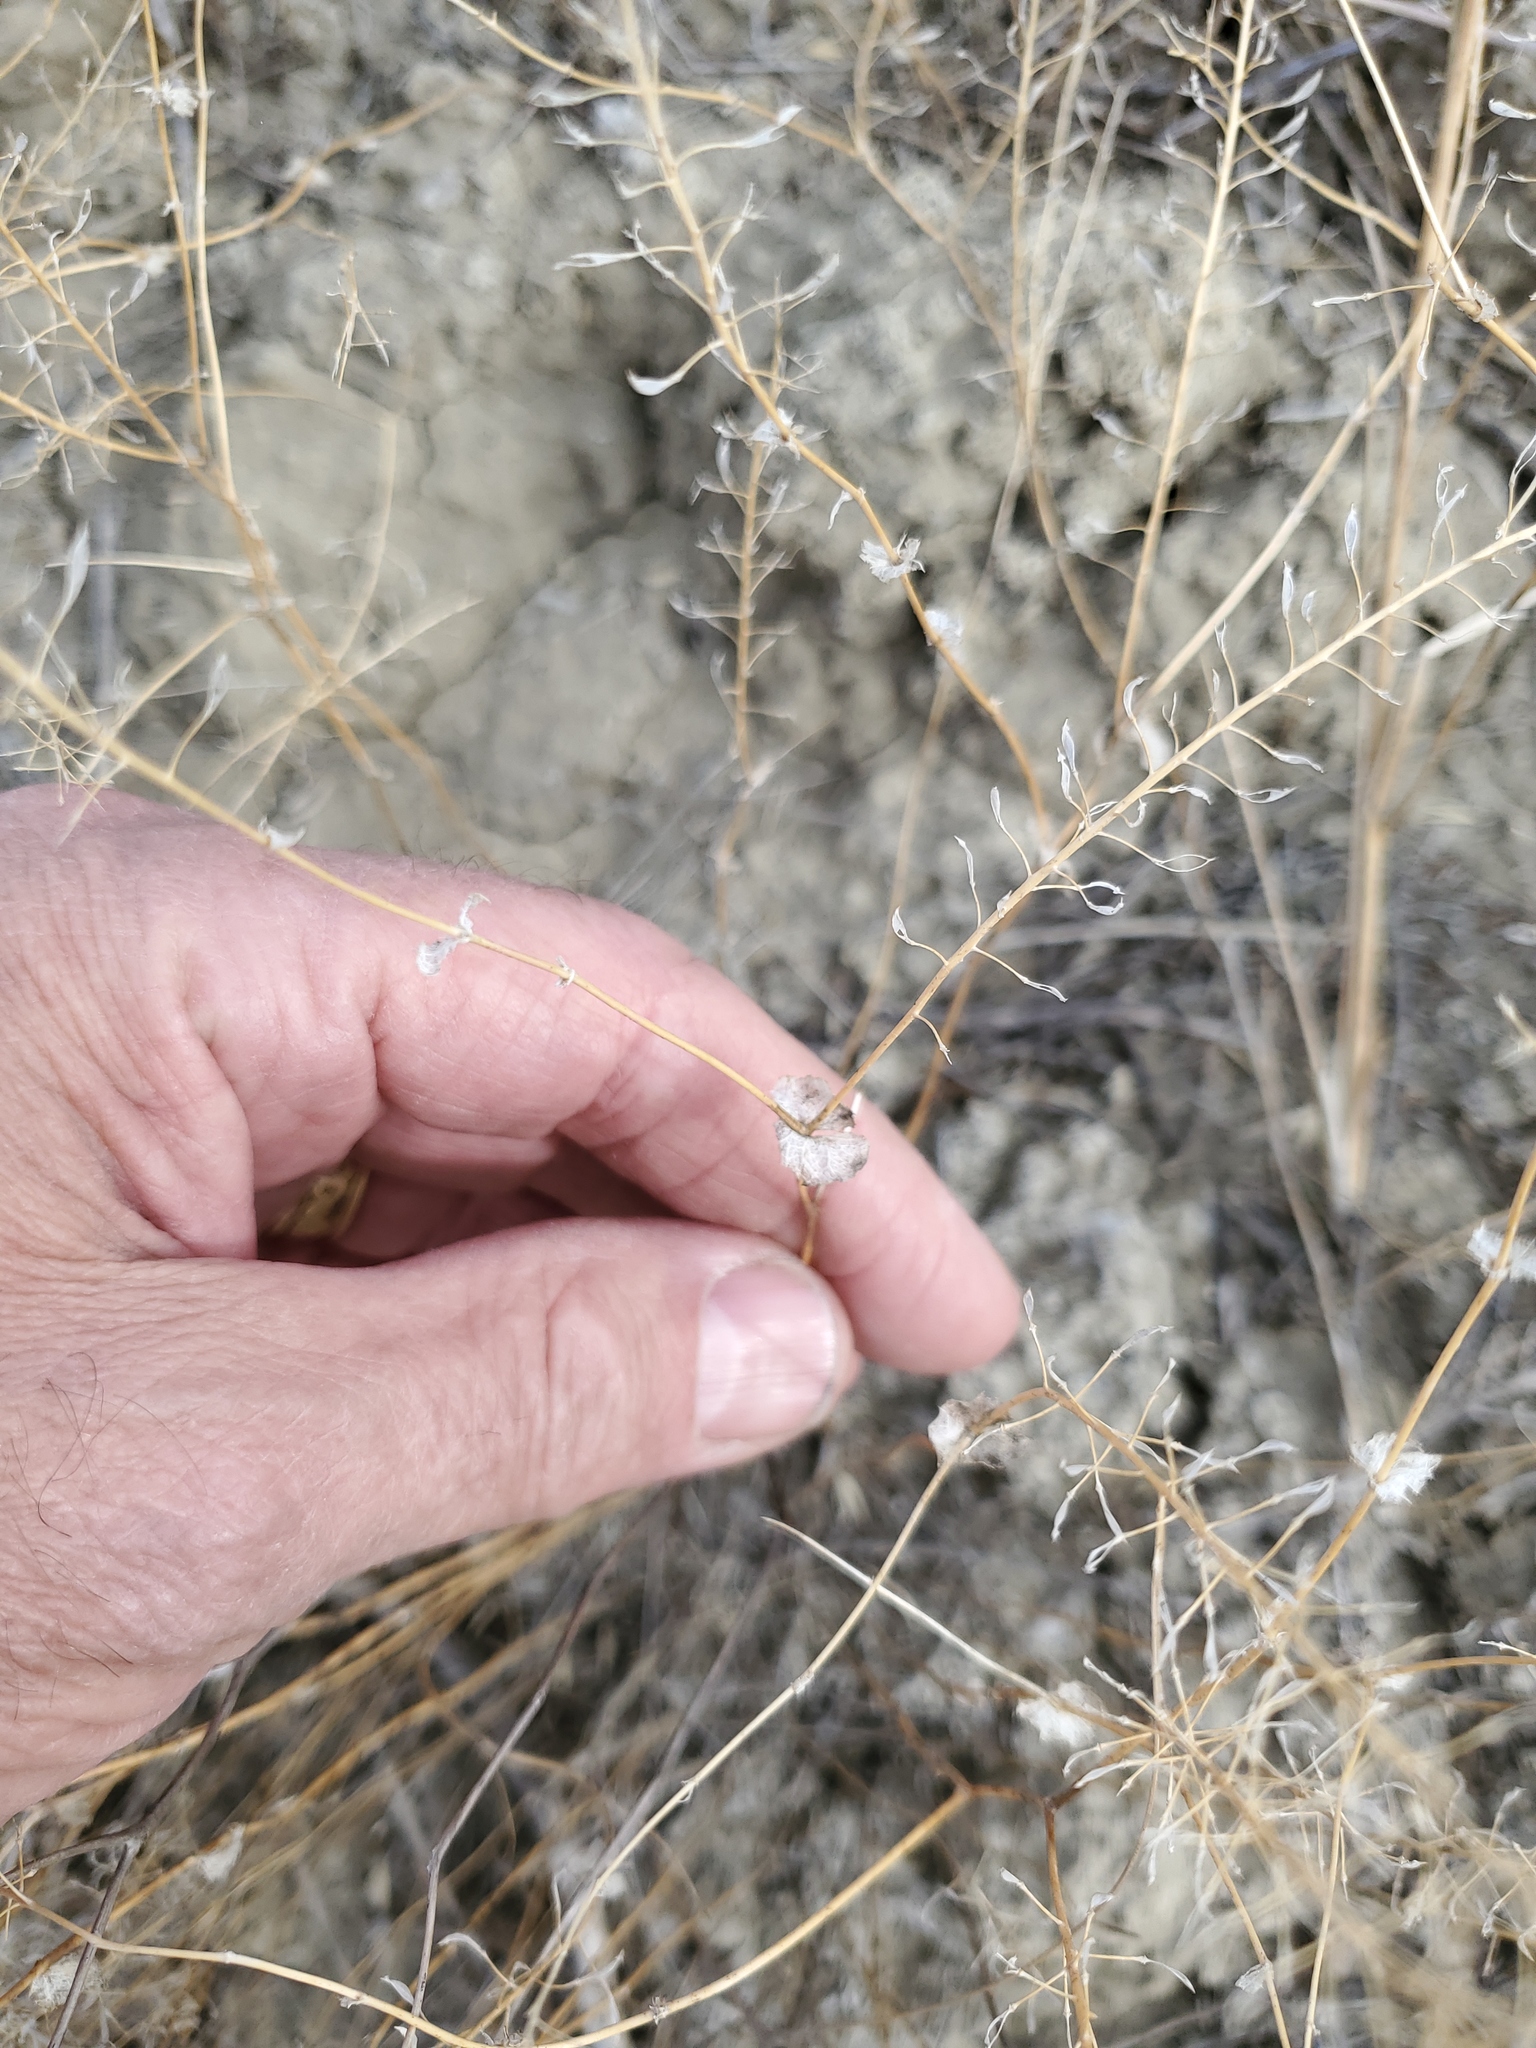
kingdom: Plantae
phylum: Tracheophyta
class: Magnoliopsida
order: Brassicales
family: Brassicaceae
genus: Lepidium
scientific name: Lepidium perfoliatum
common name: Perfoliate pepperwort
